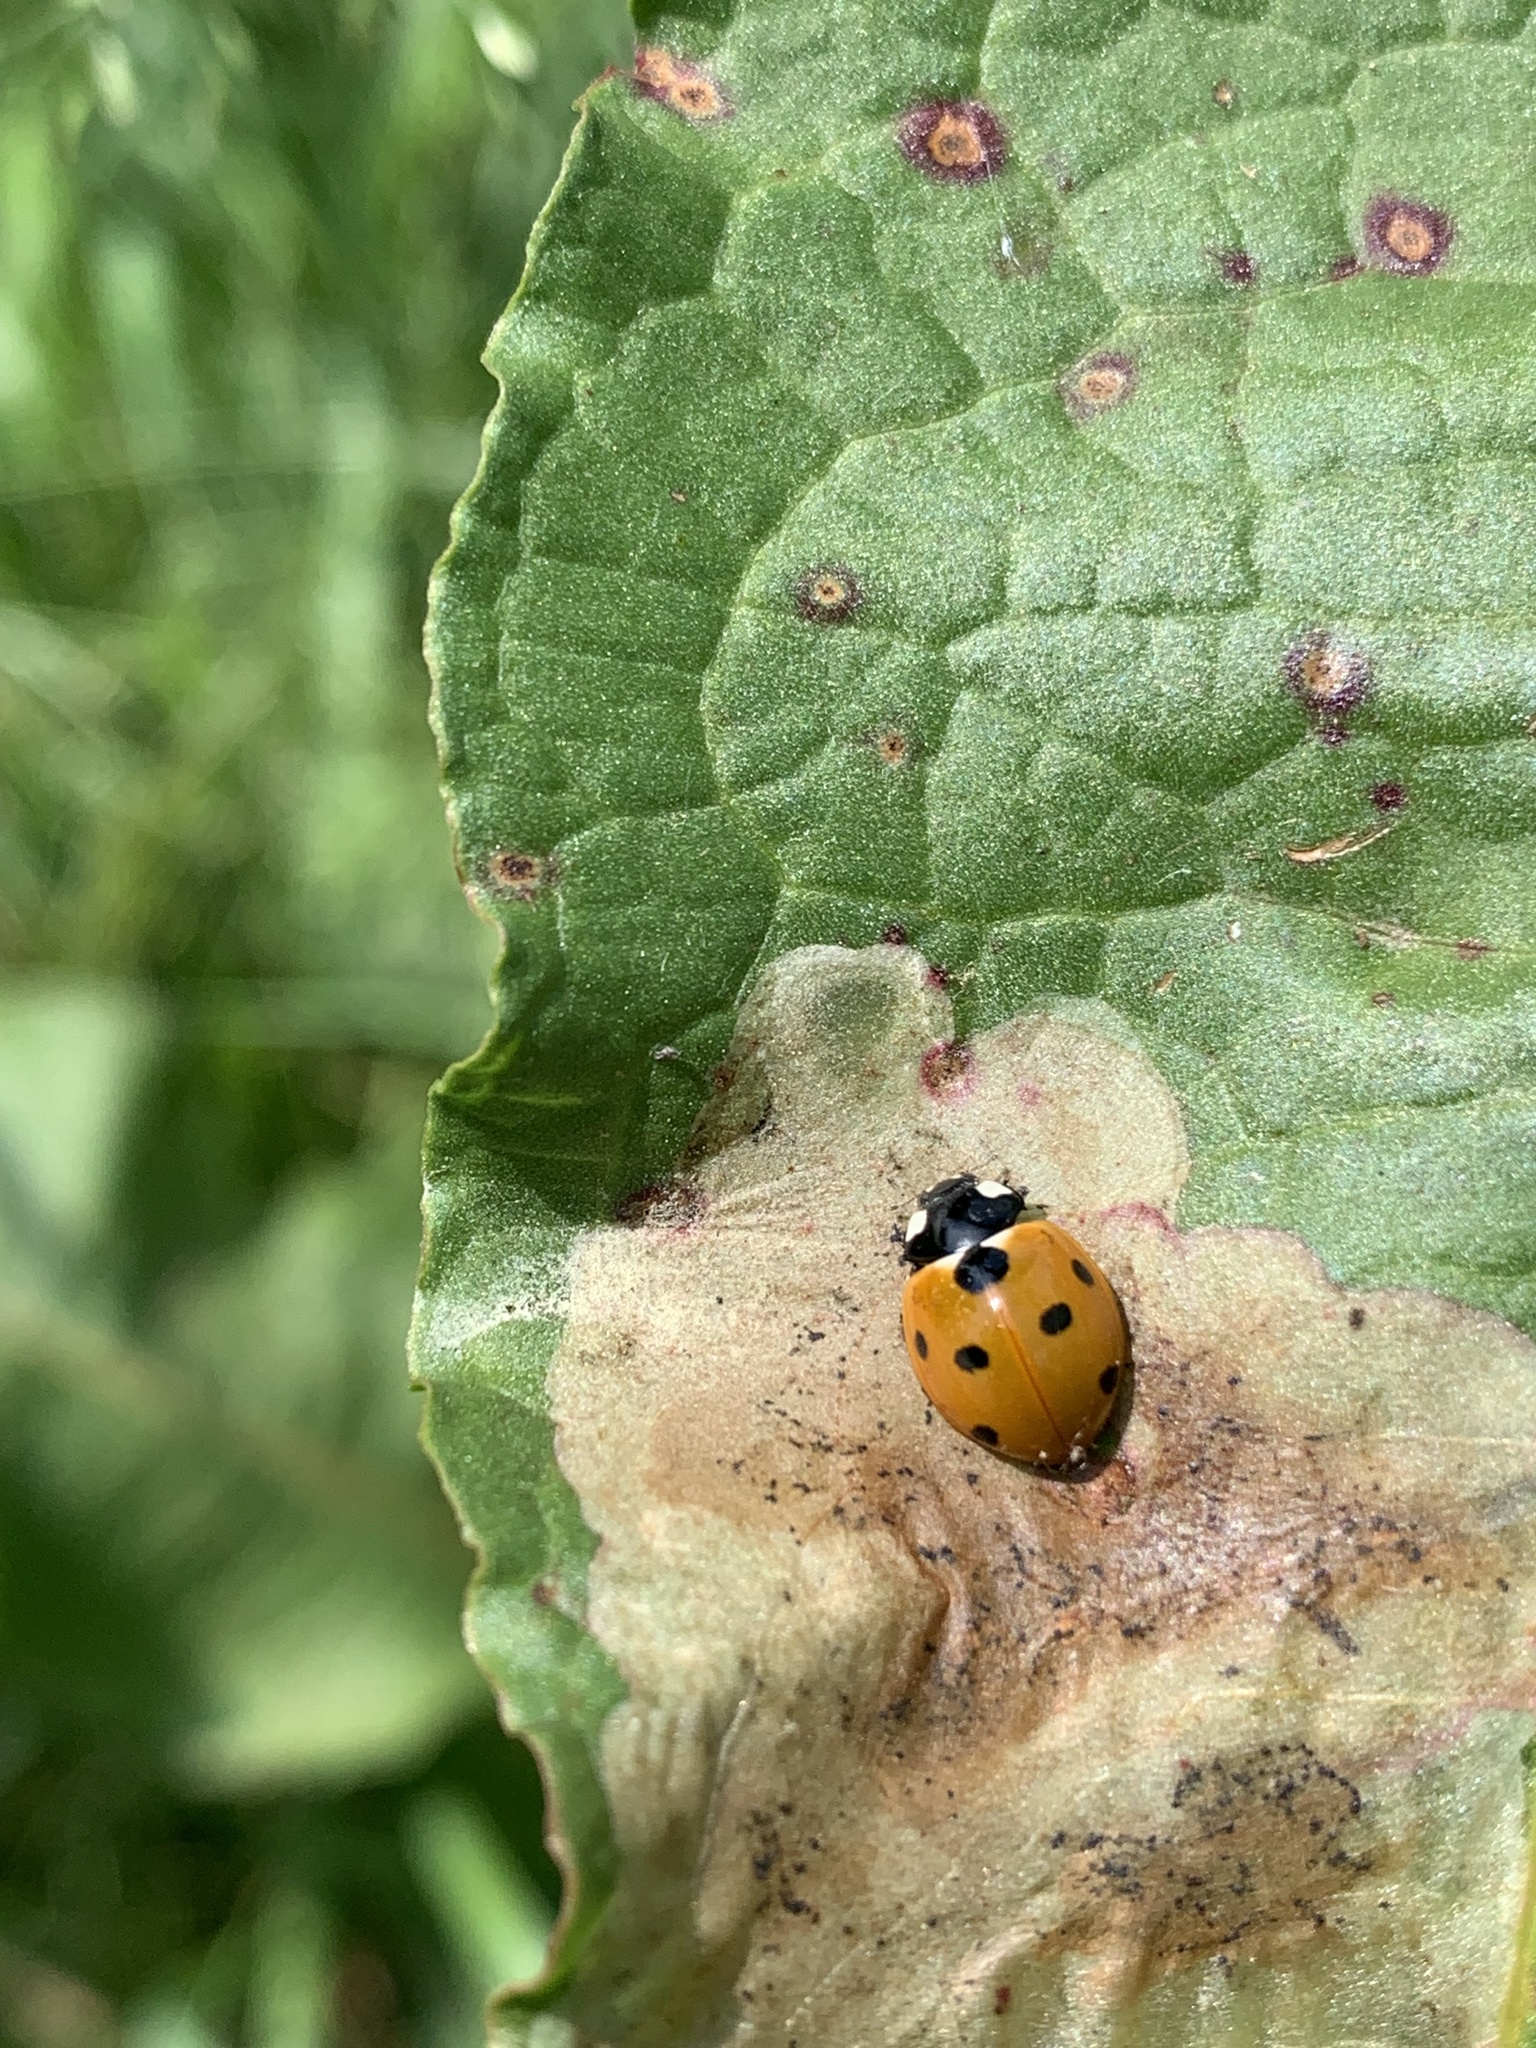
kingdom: Animalia
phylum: Arthropoda
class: Insecta
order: Coleoptera
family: Coccinellidae
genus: Coccinella
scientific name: Coccinella septempunctata
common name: Sevenspotted lady beetle
